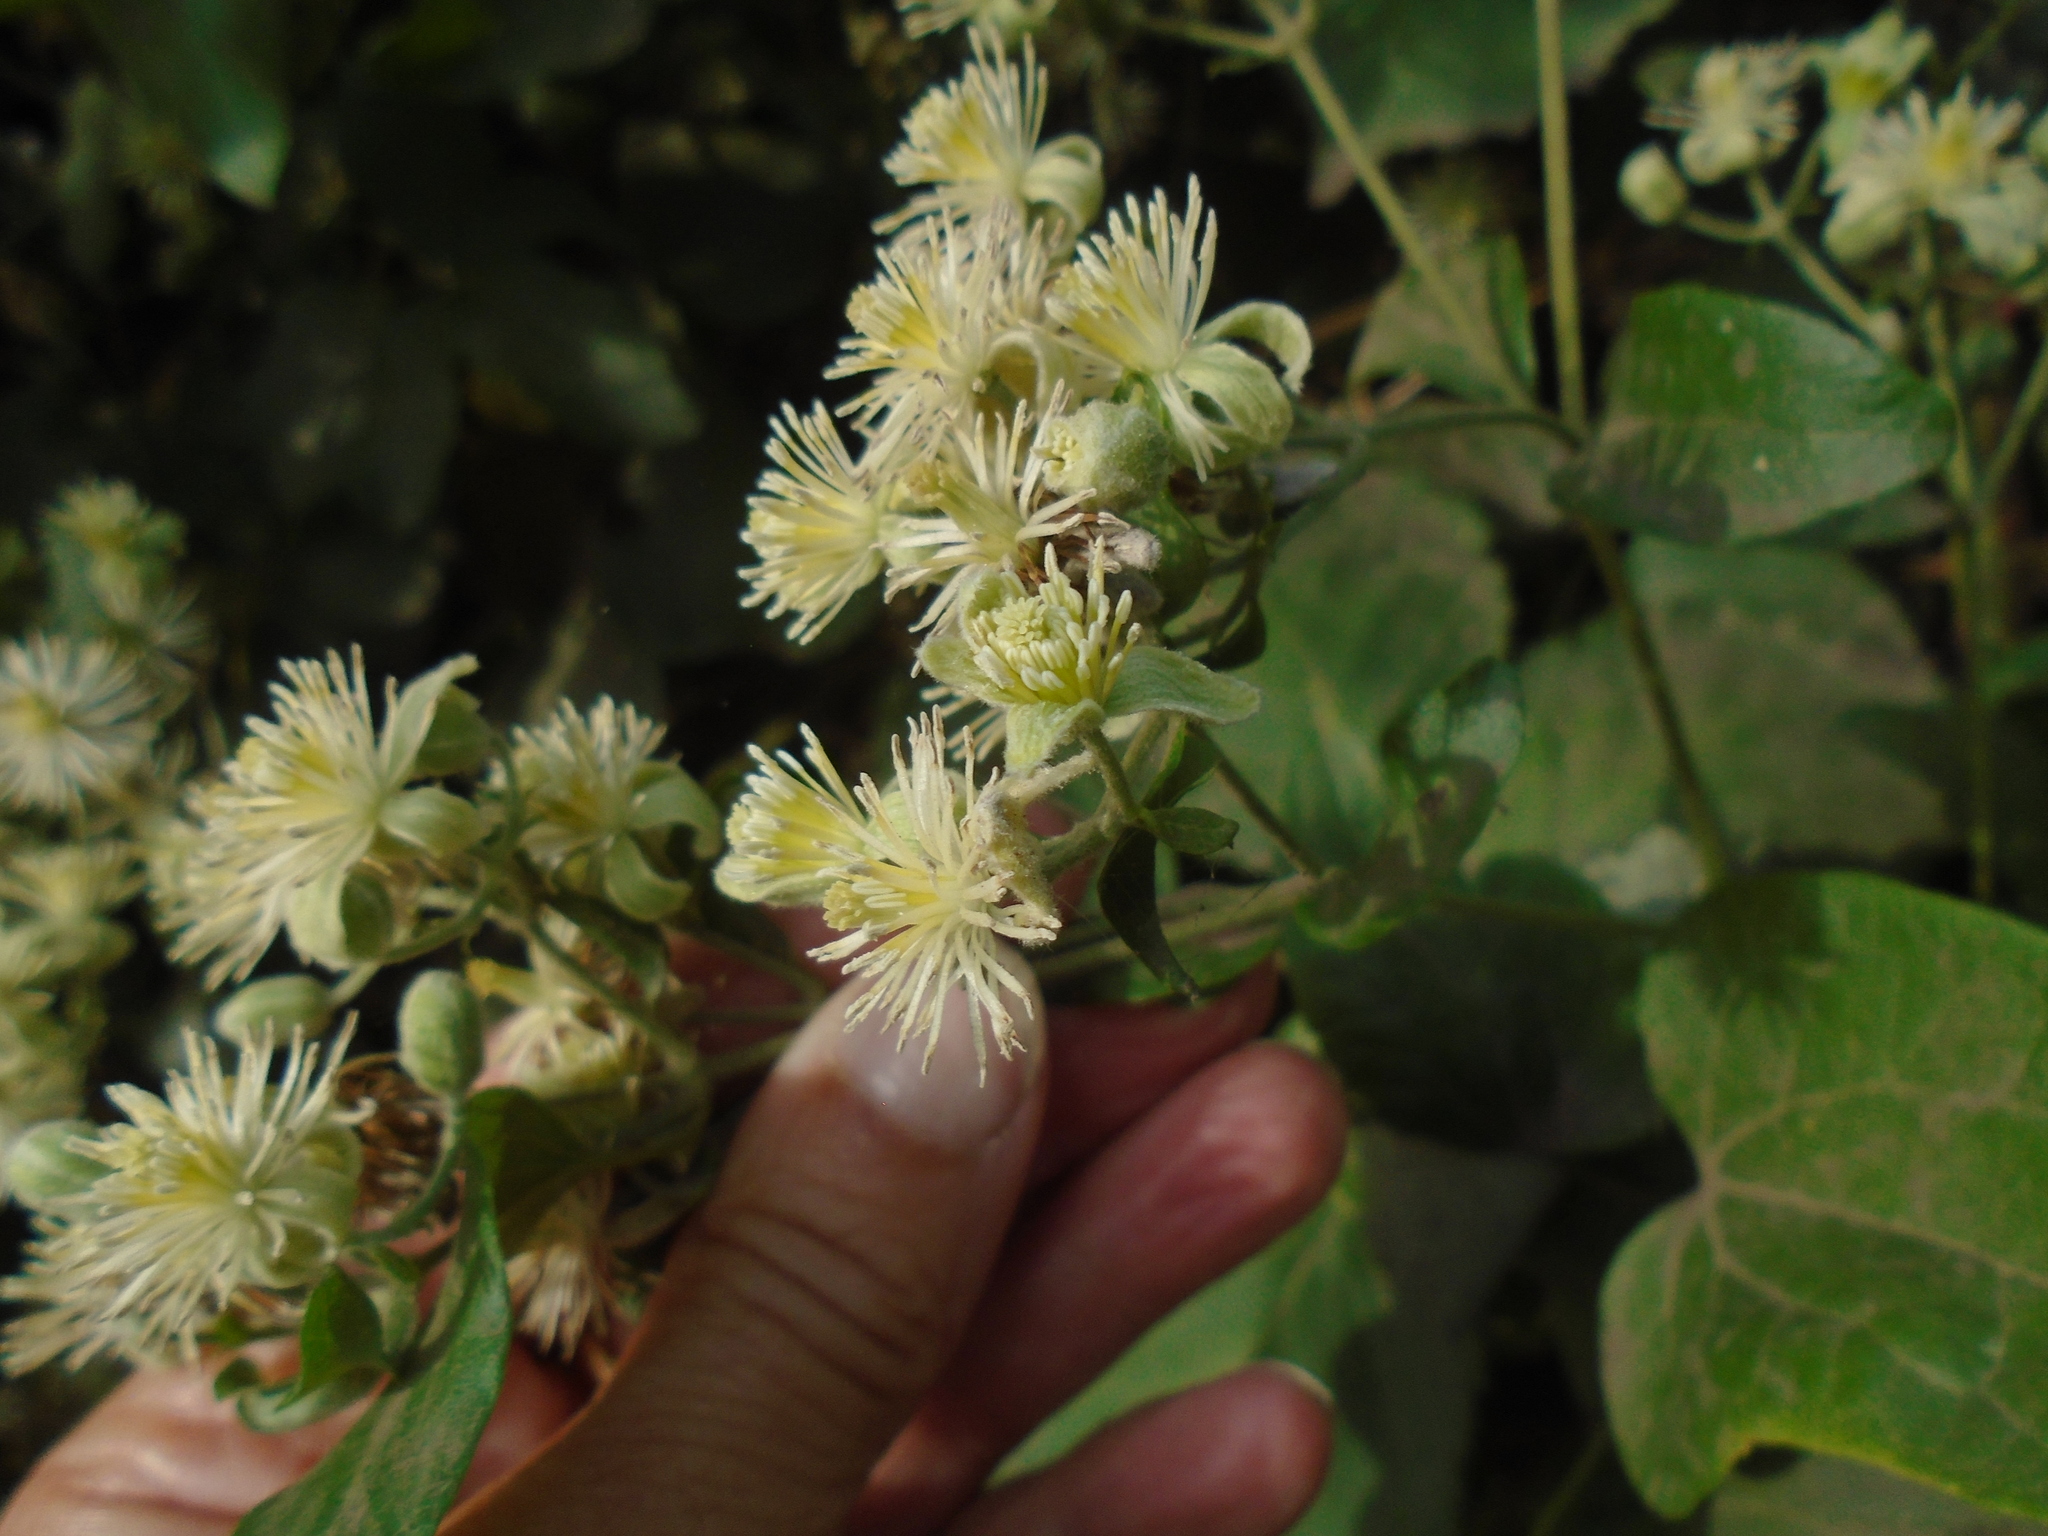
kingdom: Plantae
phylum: Tracheophyta
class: Magnoliopsida
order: Ranunculales
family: Ranunculaceae
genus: Clematis
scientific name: Clematis vitalba
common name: Evergreen clematis
